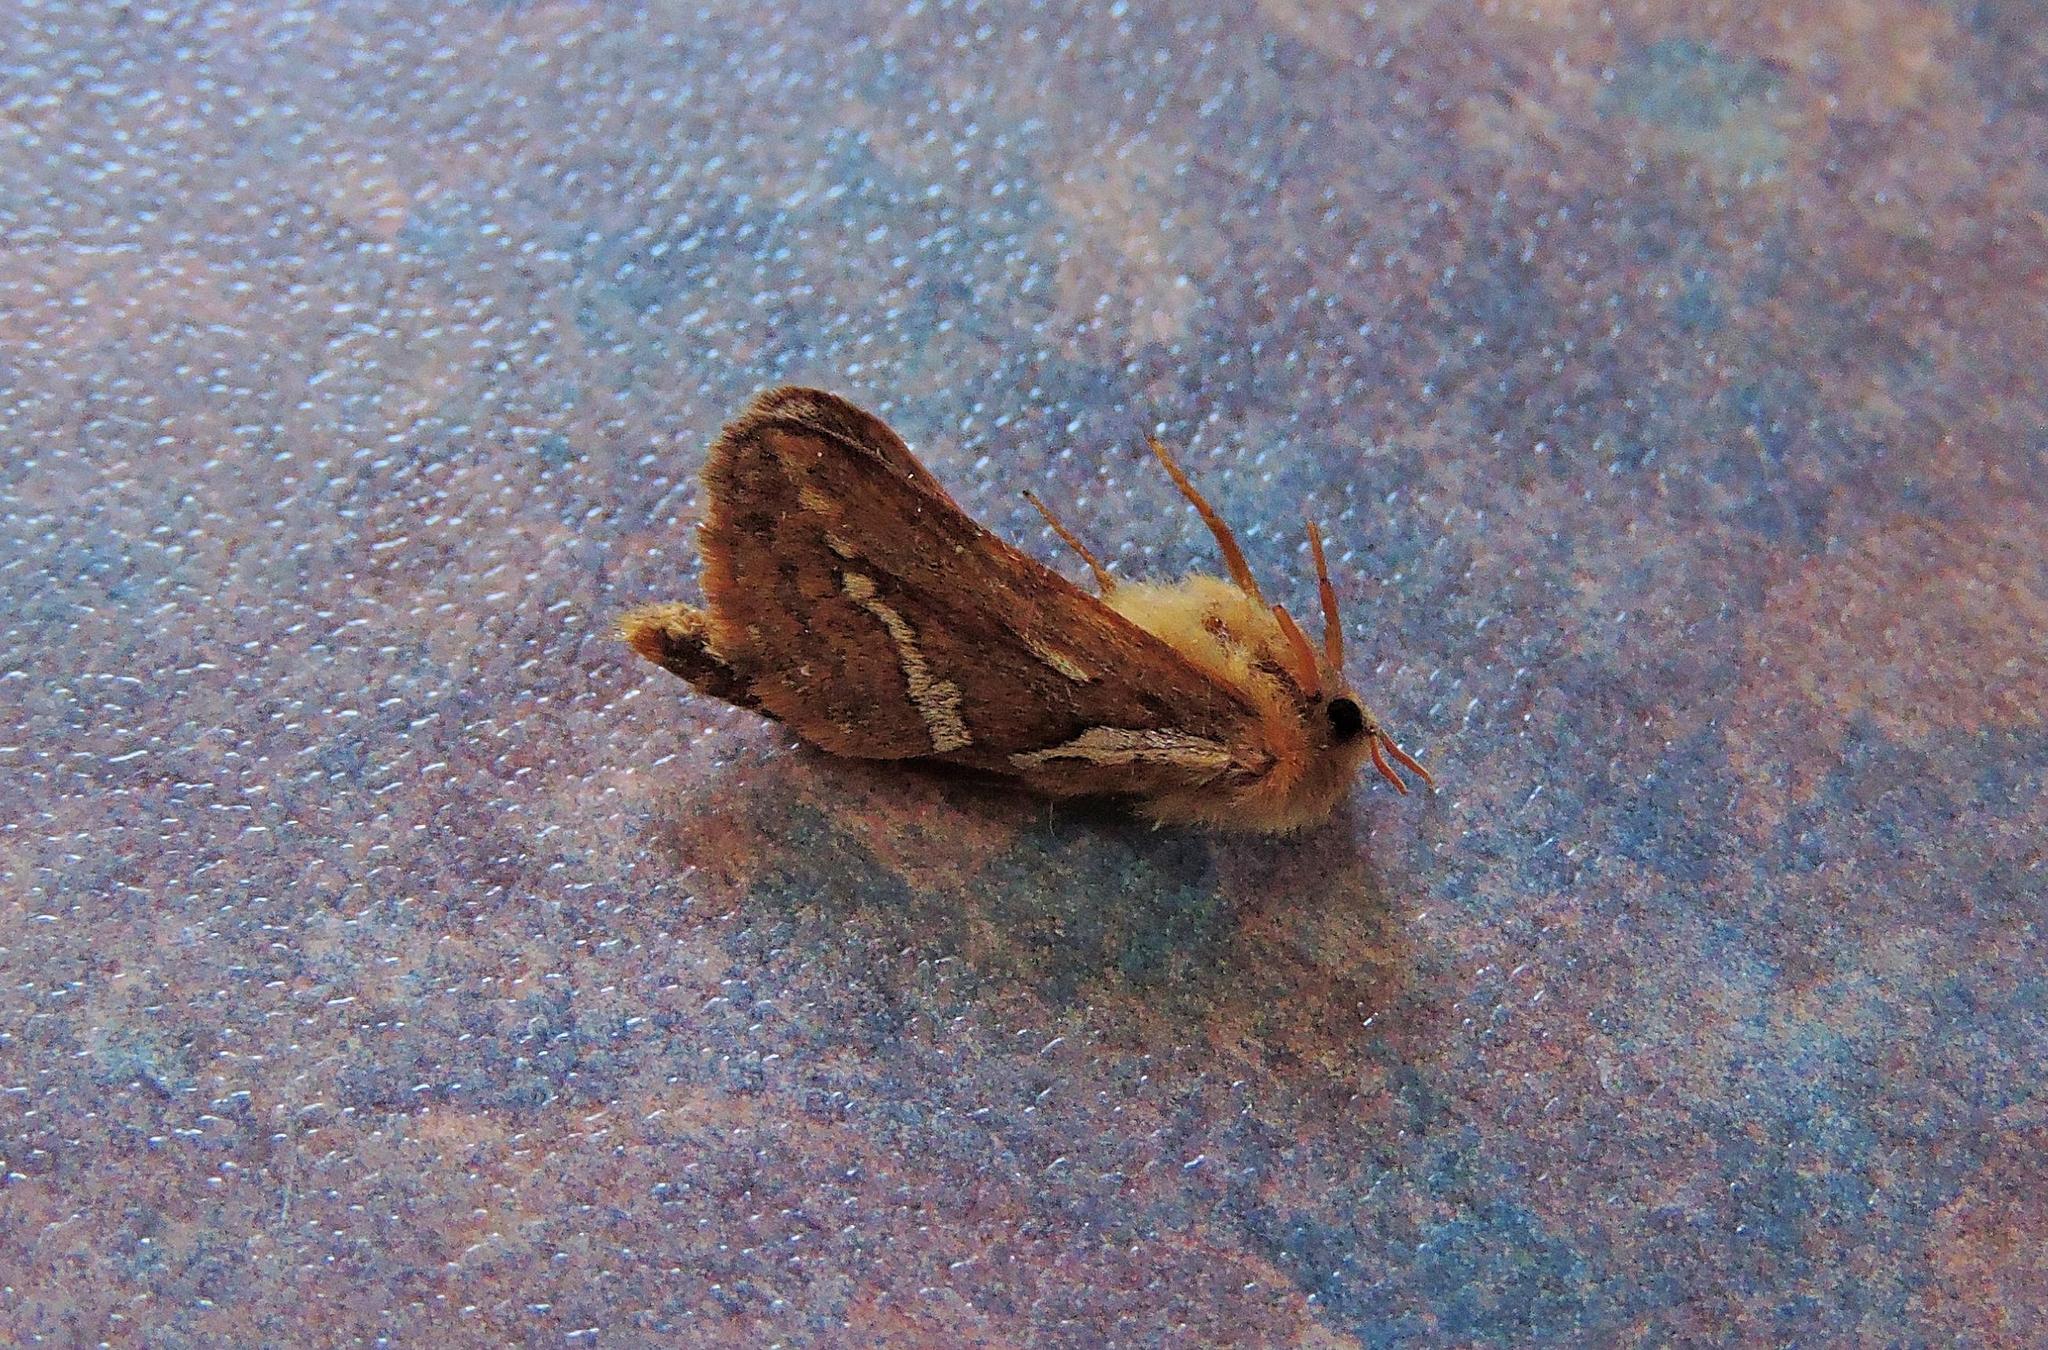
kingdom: Animalia
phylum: Arthropoda
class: Insecta
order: Lepidoptera
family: Hepialidae
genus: Korscheltellus
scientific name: Korscheltellus lupulina
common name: Common swift
